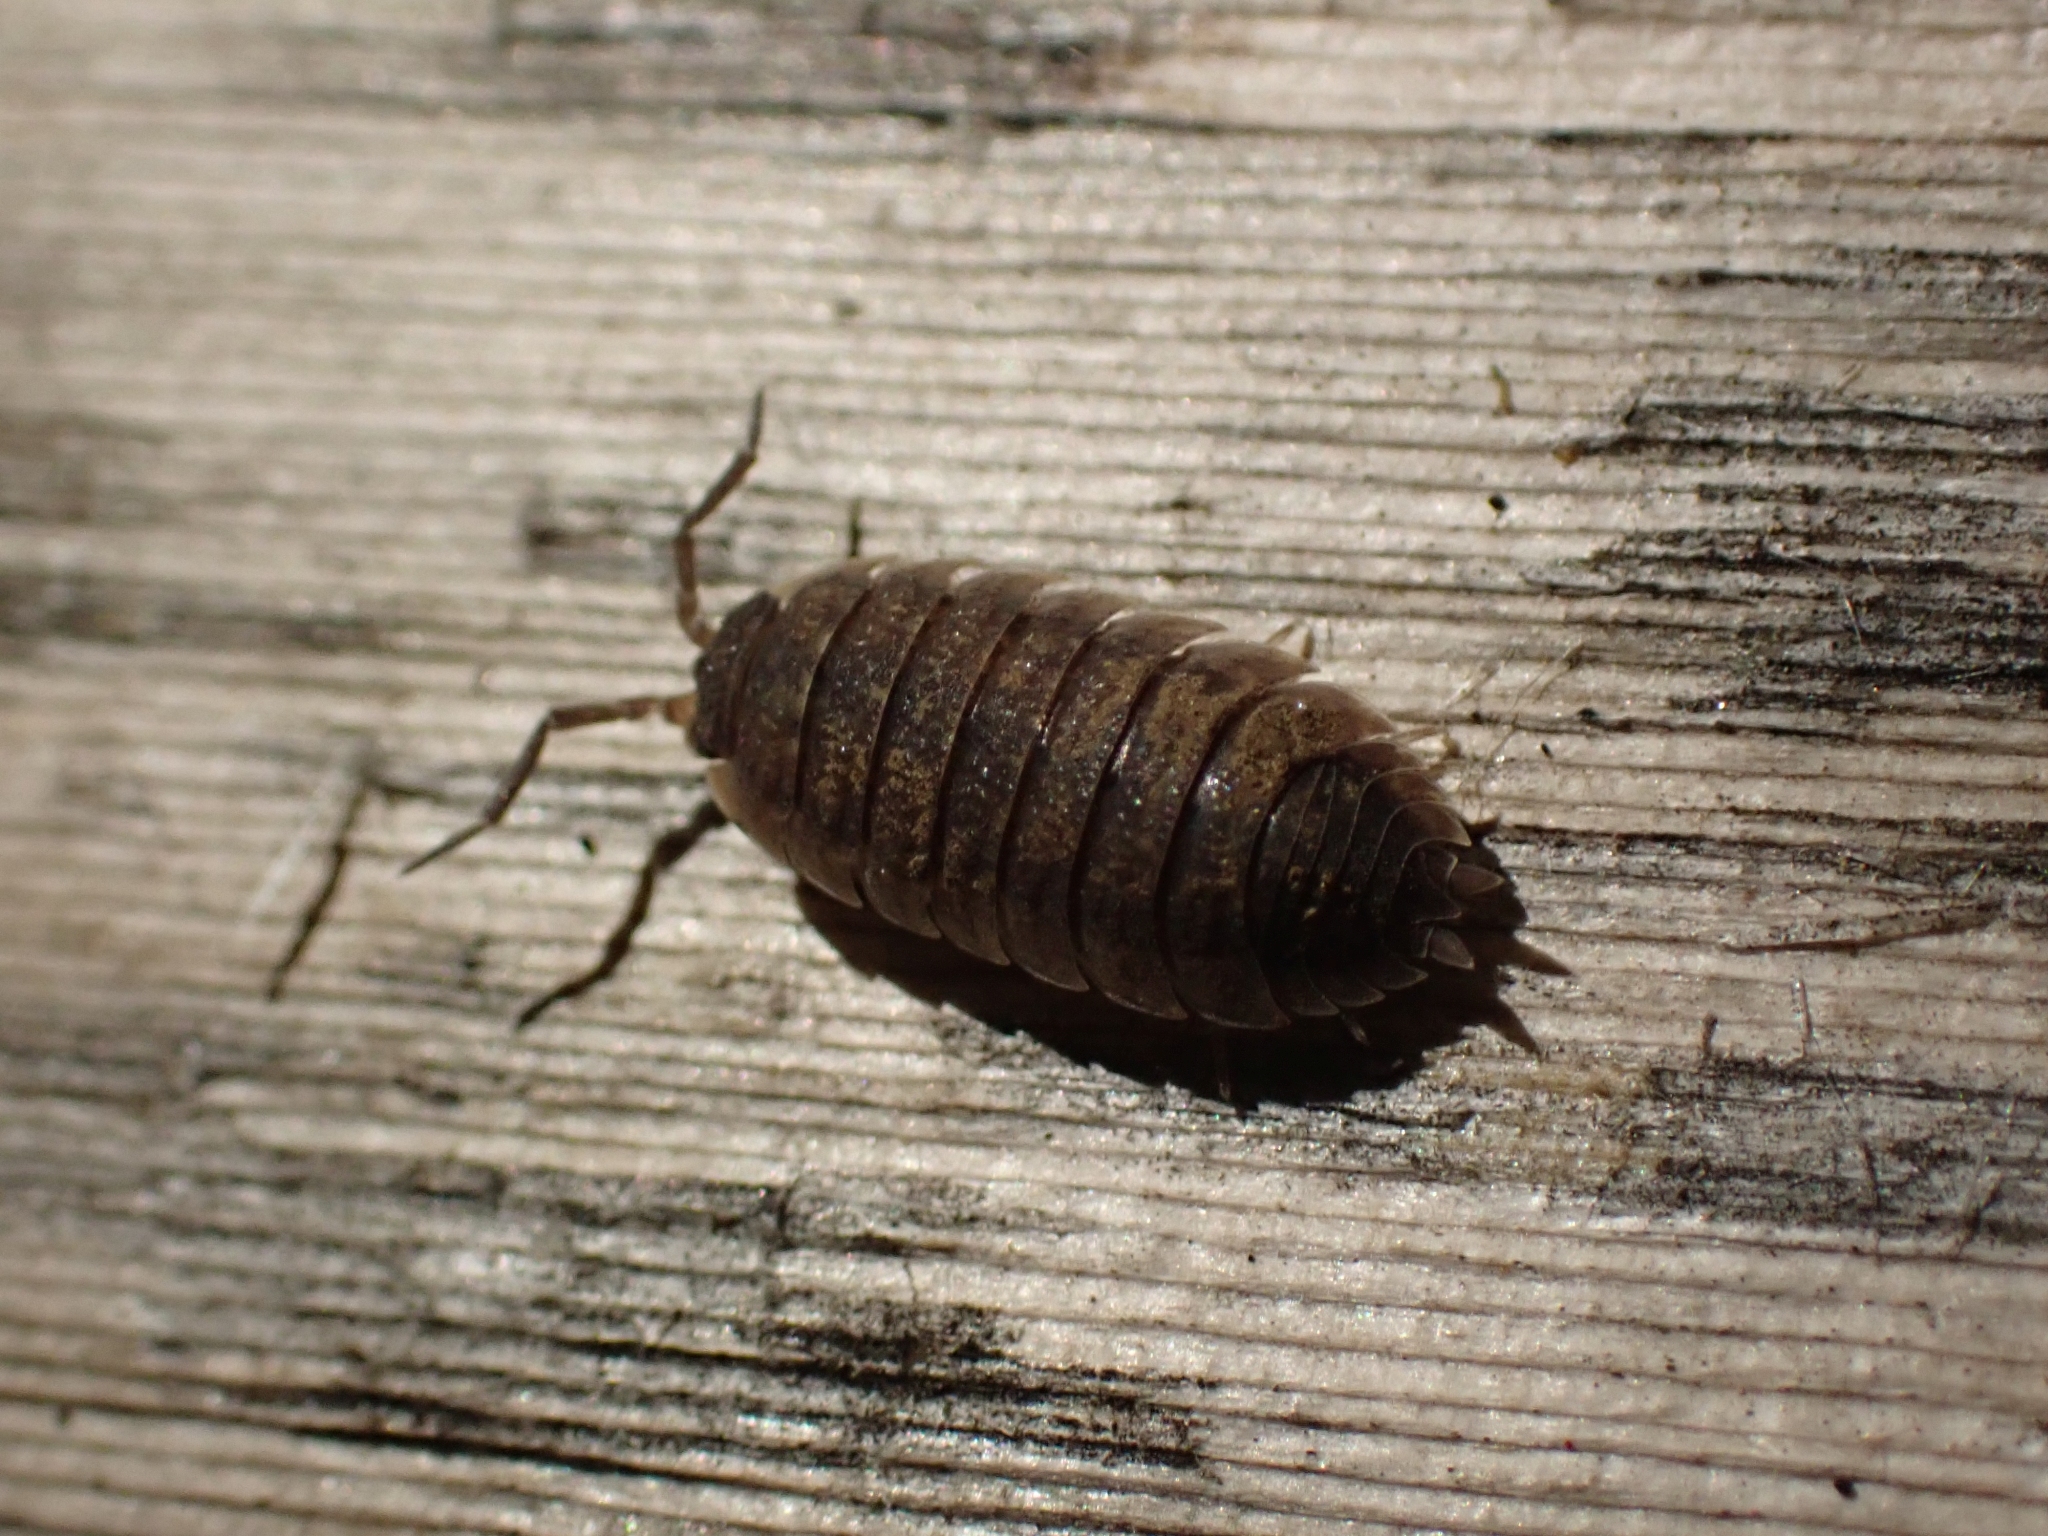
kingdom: Animalia
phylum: Arthropoda
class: Malacostraca
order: Isopoda
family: Porcellionidae
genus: Porcellio
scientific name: Porcellio scaber
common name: Common rough woodlouse
